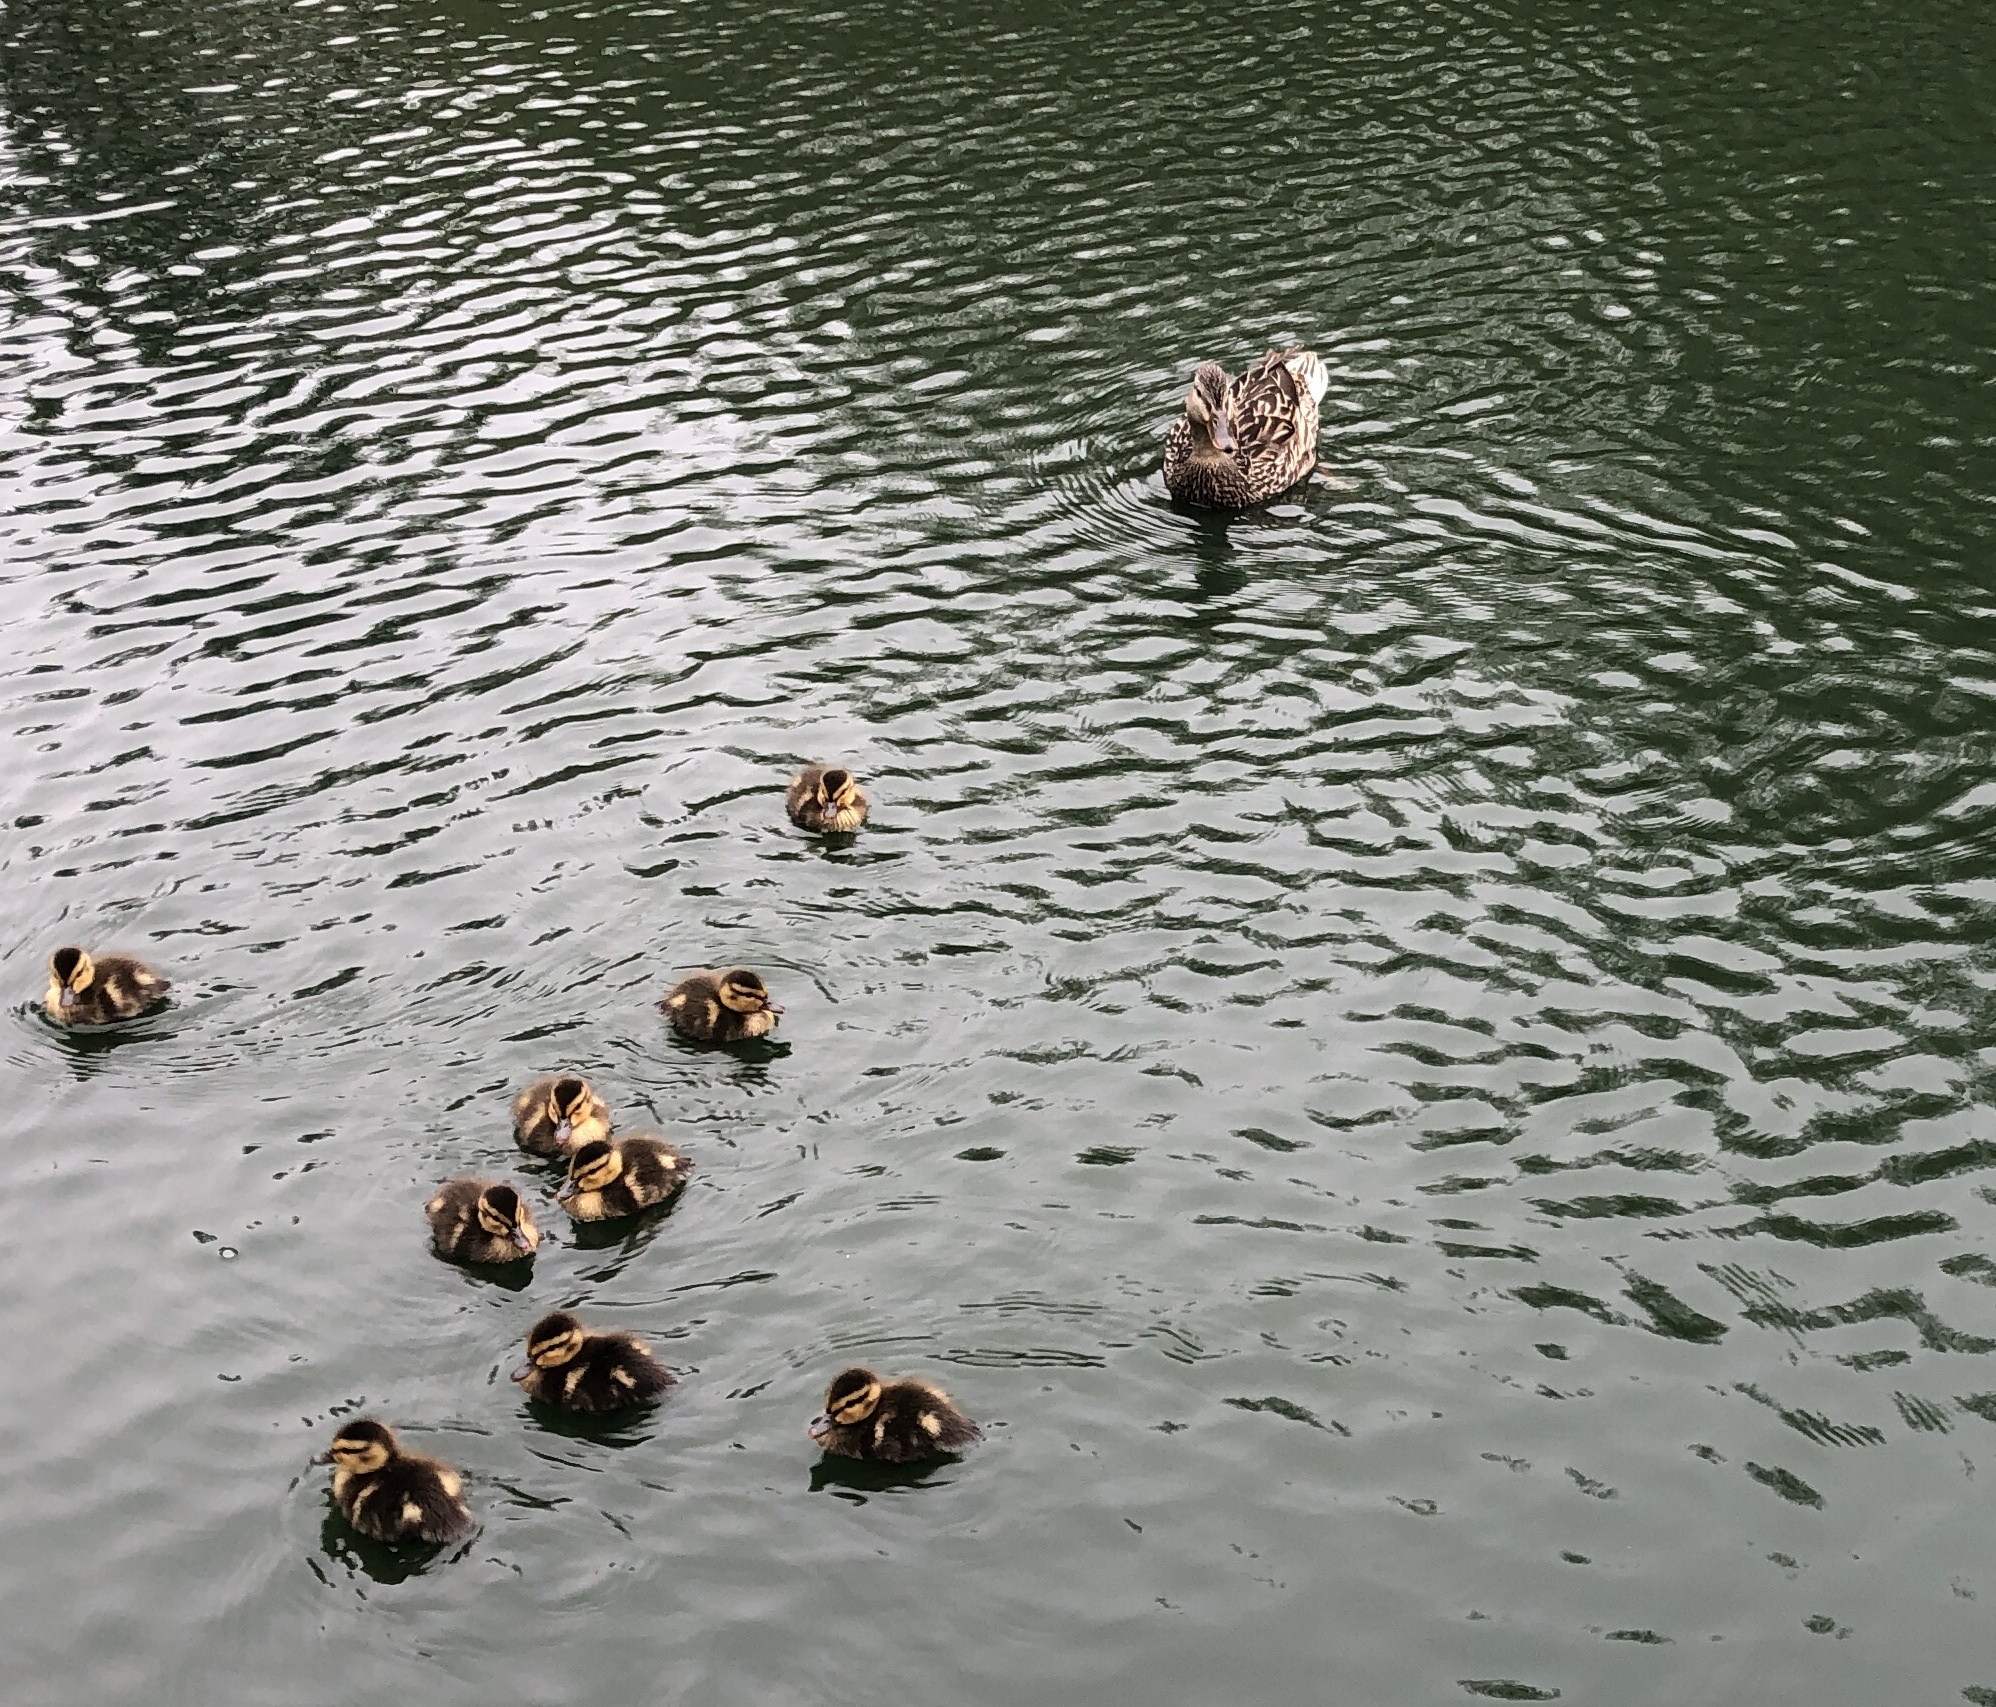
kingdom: Animalia
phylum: Chordata
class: Aves
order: Anseriformes
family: Anatidae
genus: Anas
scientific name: Anas platyrhynchos
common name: Mallard
